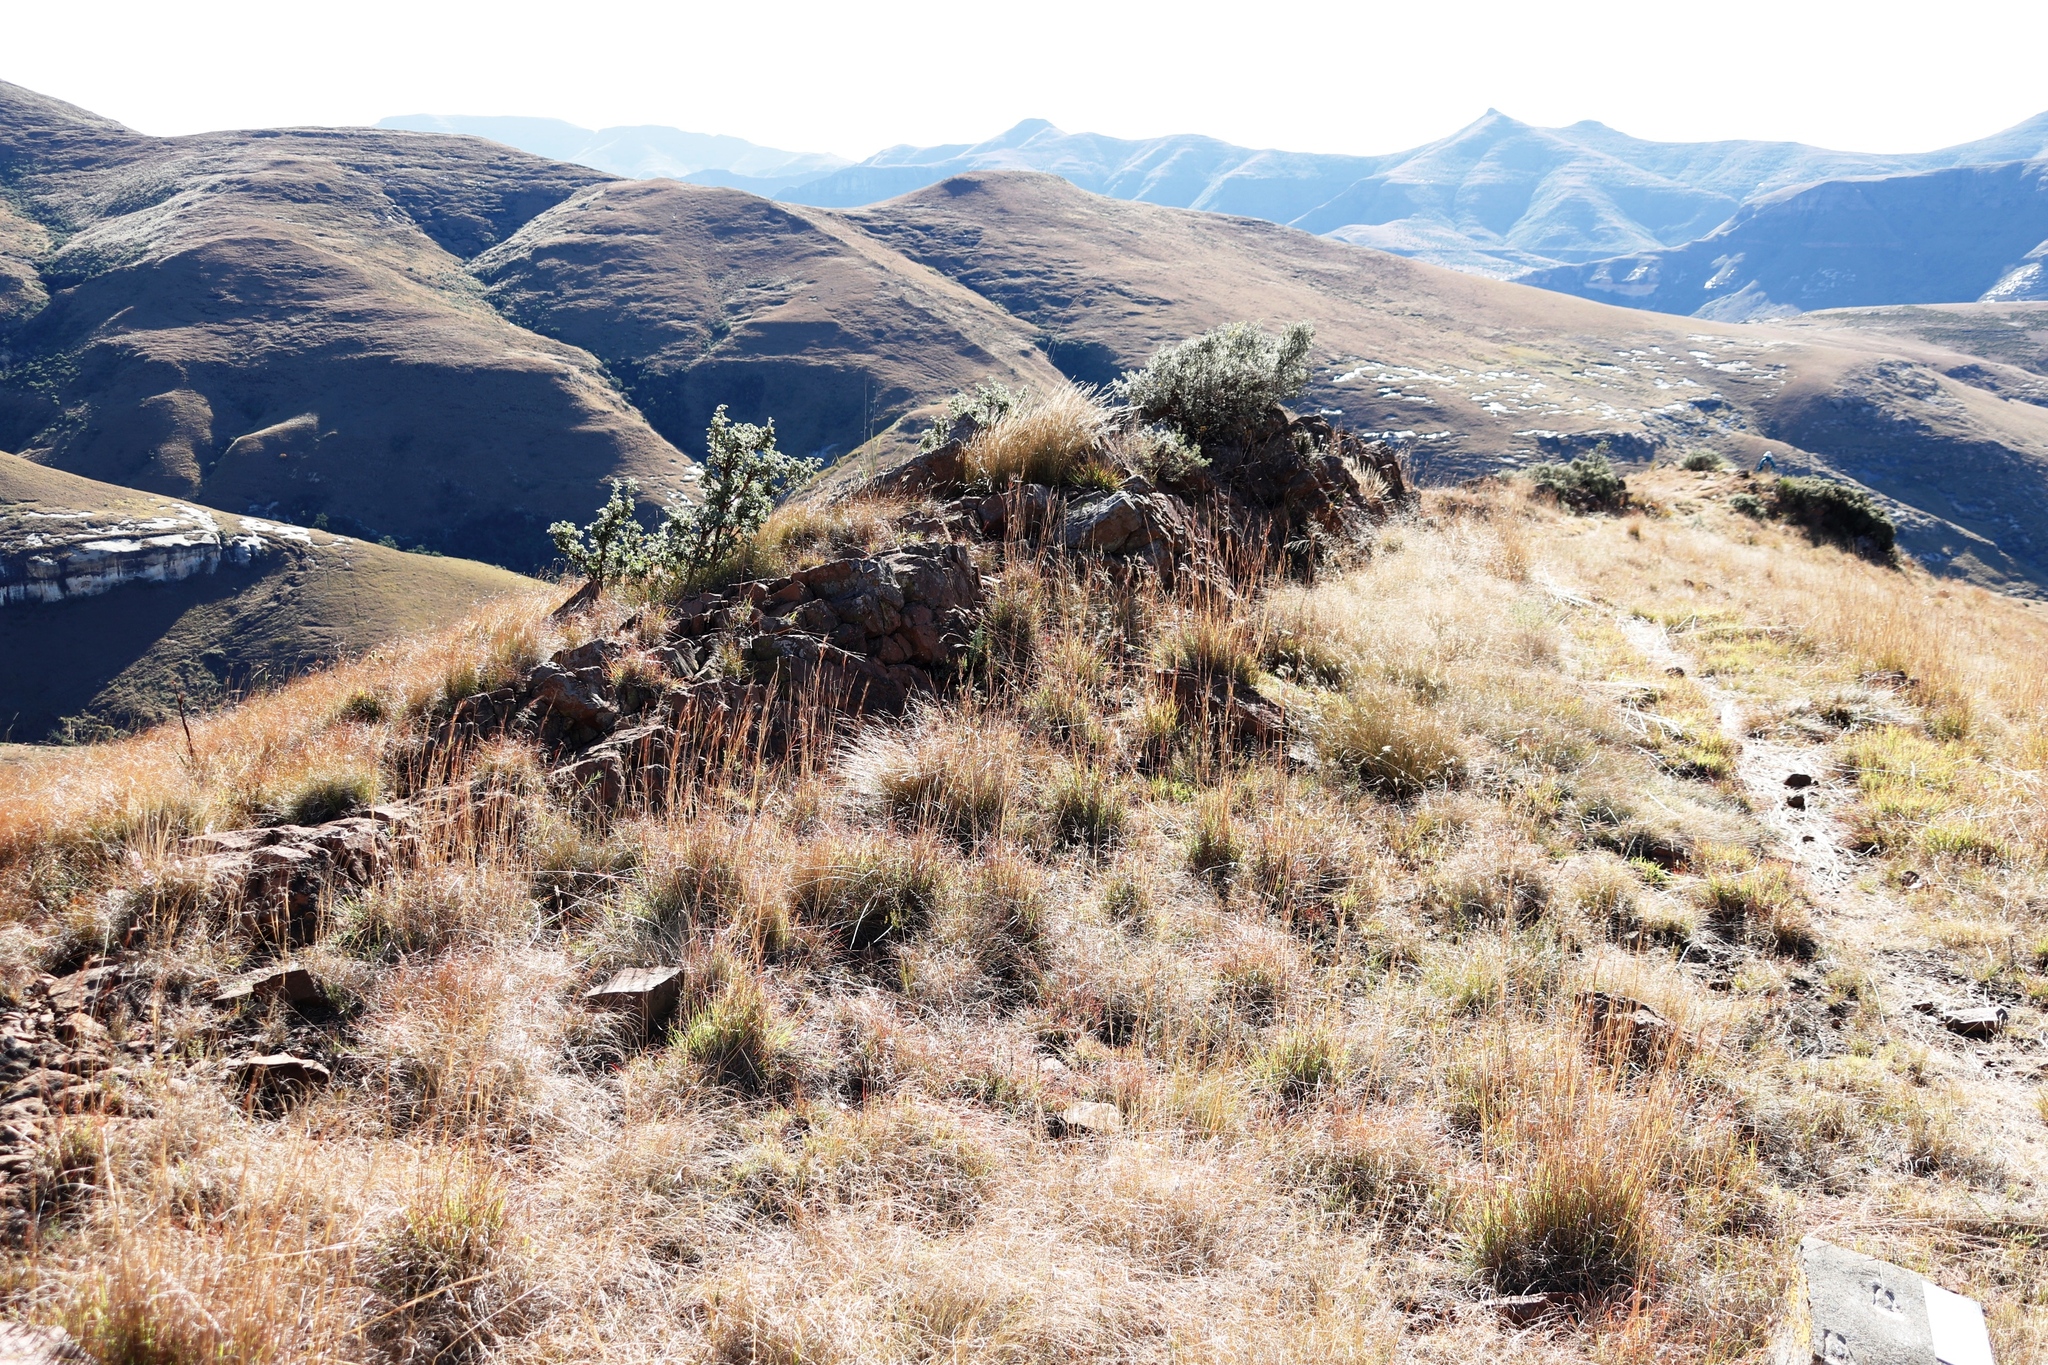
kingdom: Plantae
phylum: Tracheophyta
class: Magnoliopsida
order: Ericales
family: Ebenaceae
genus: Diospyros
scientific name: Diospyros pubescens
